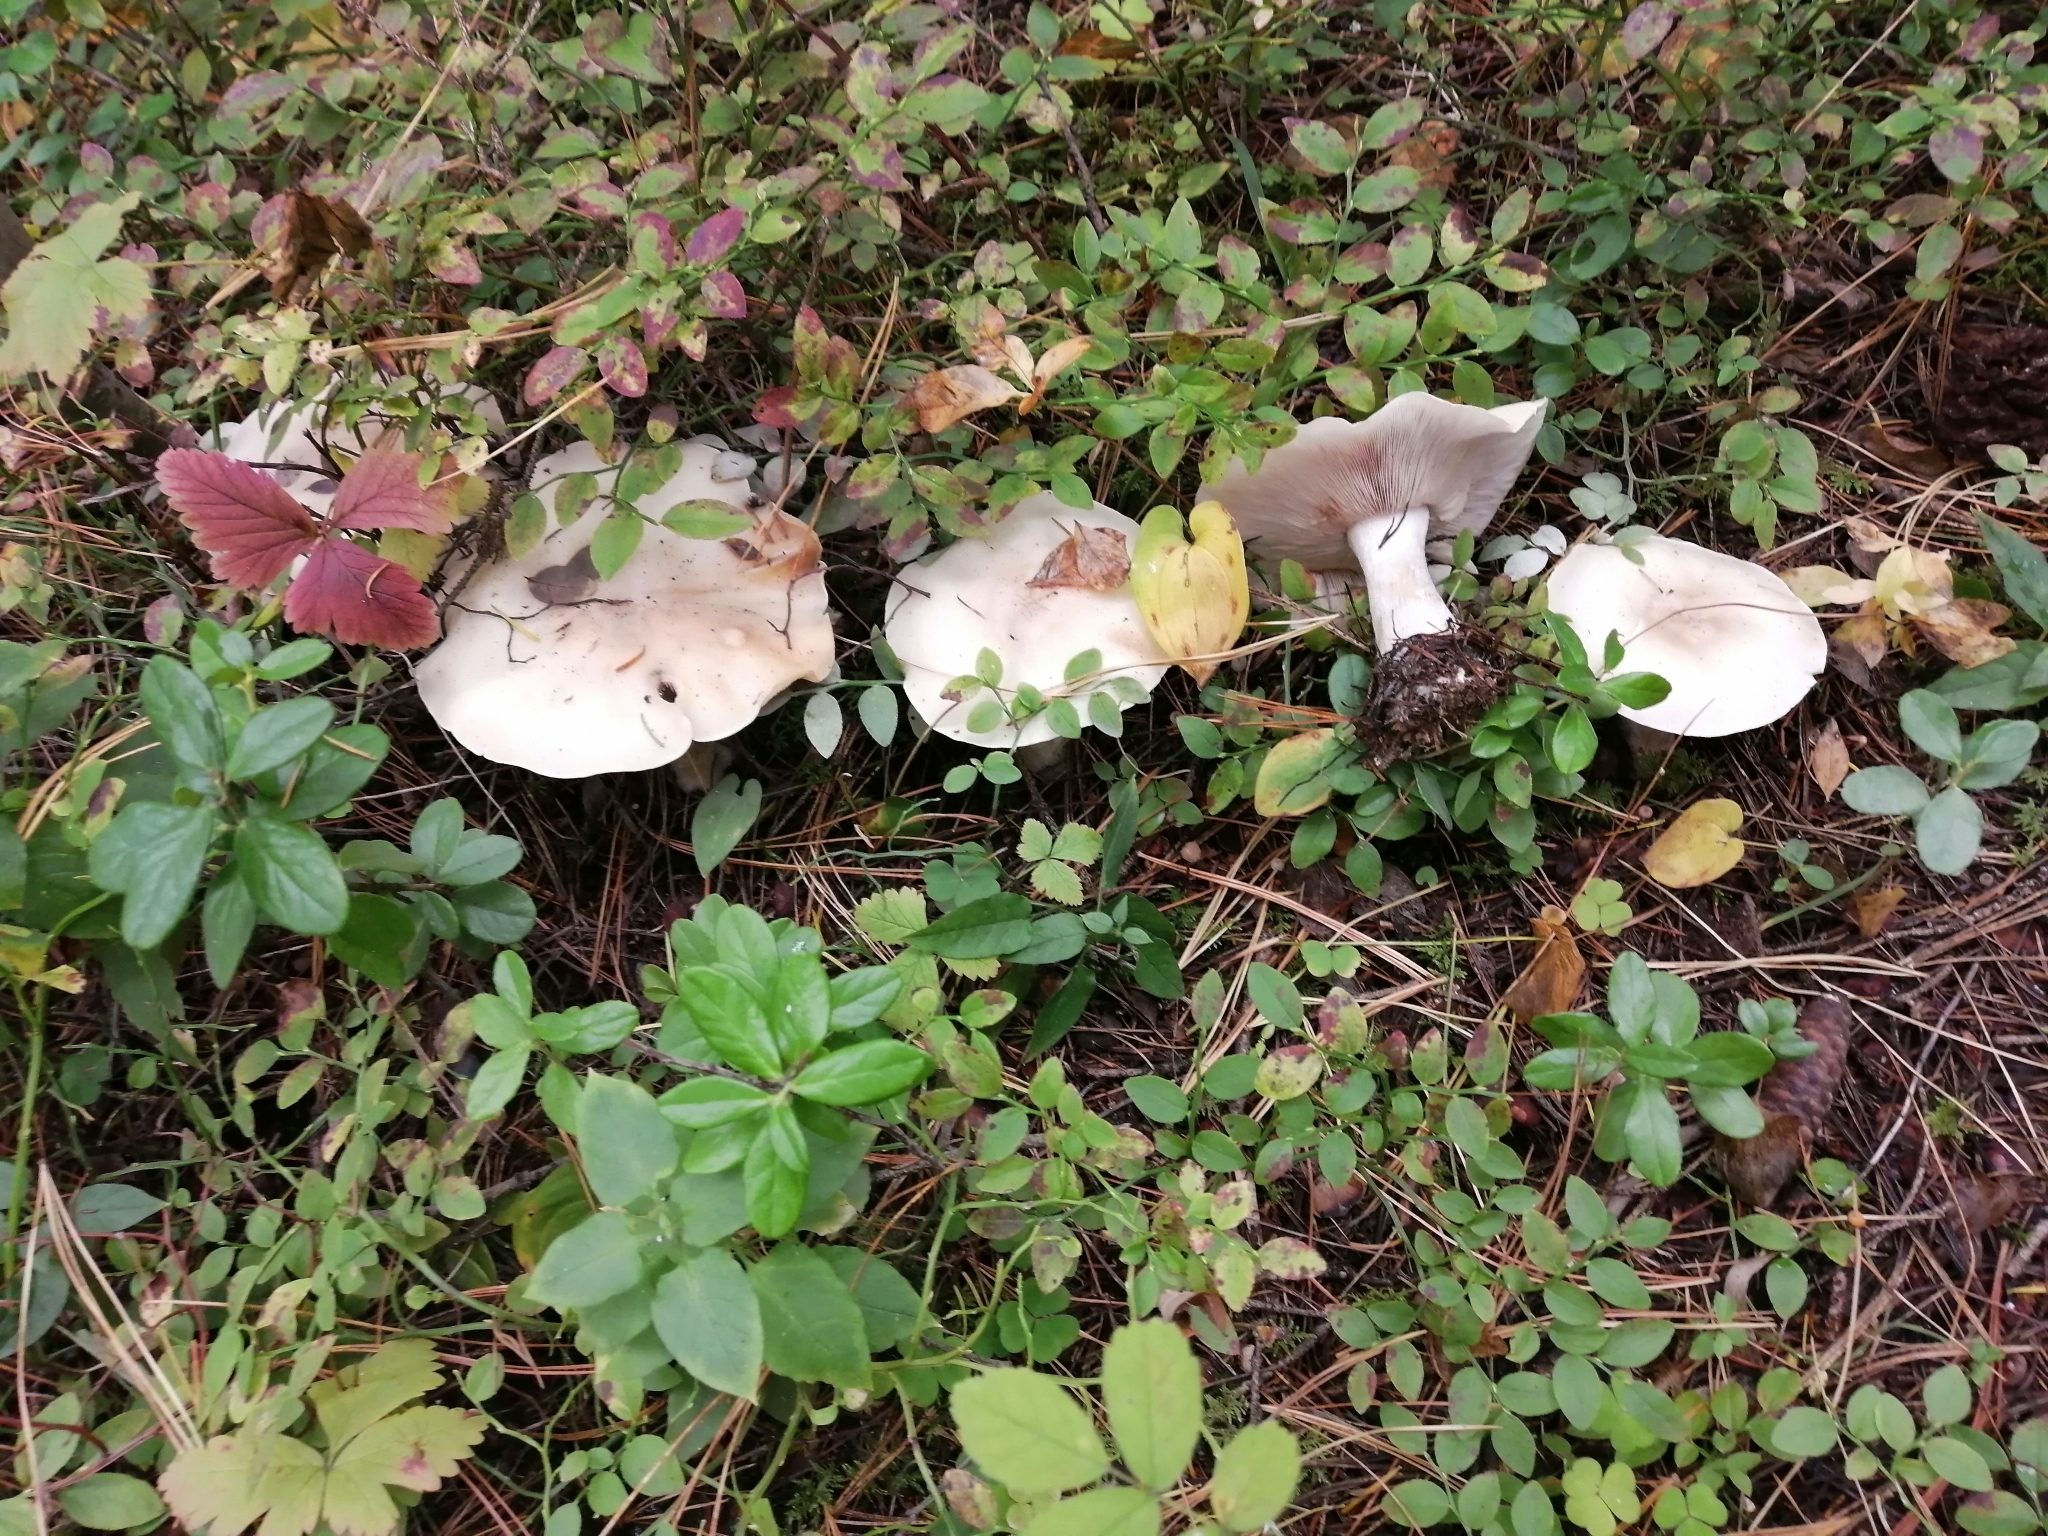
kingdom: Fungi
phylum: Basidiomycota
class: Agaricomycetes
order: Agaricales
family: Tricholomataceae
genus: Clitocybe
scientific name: Clitocybe nebularis
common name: Clouded agaric
